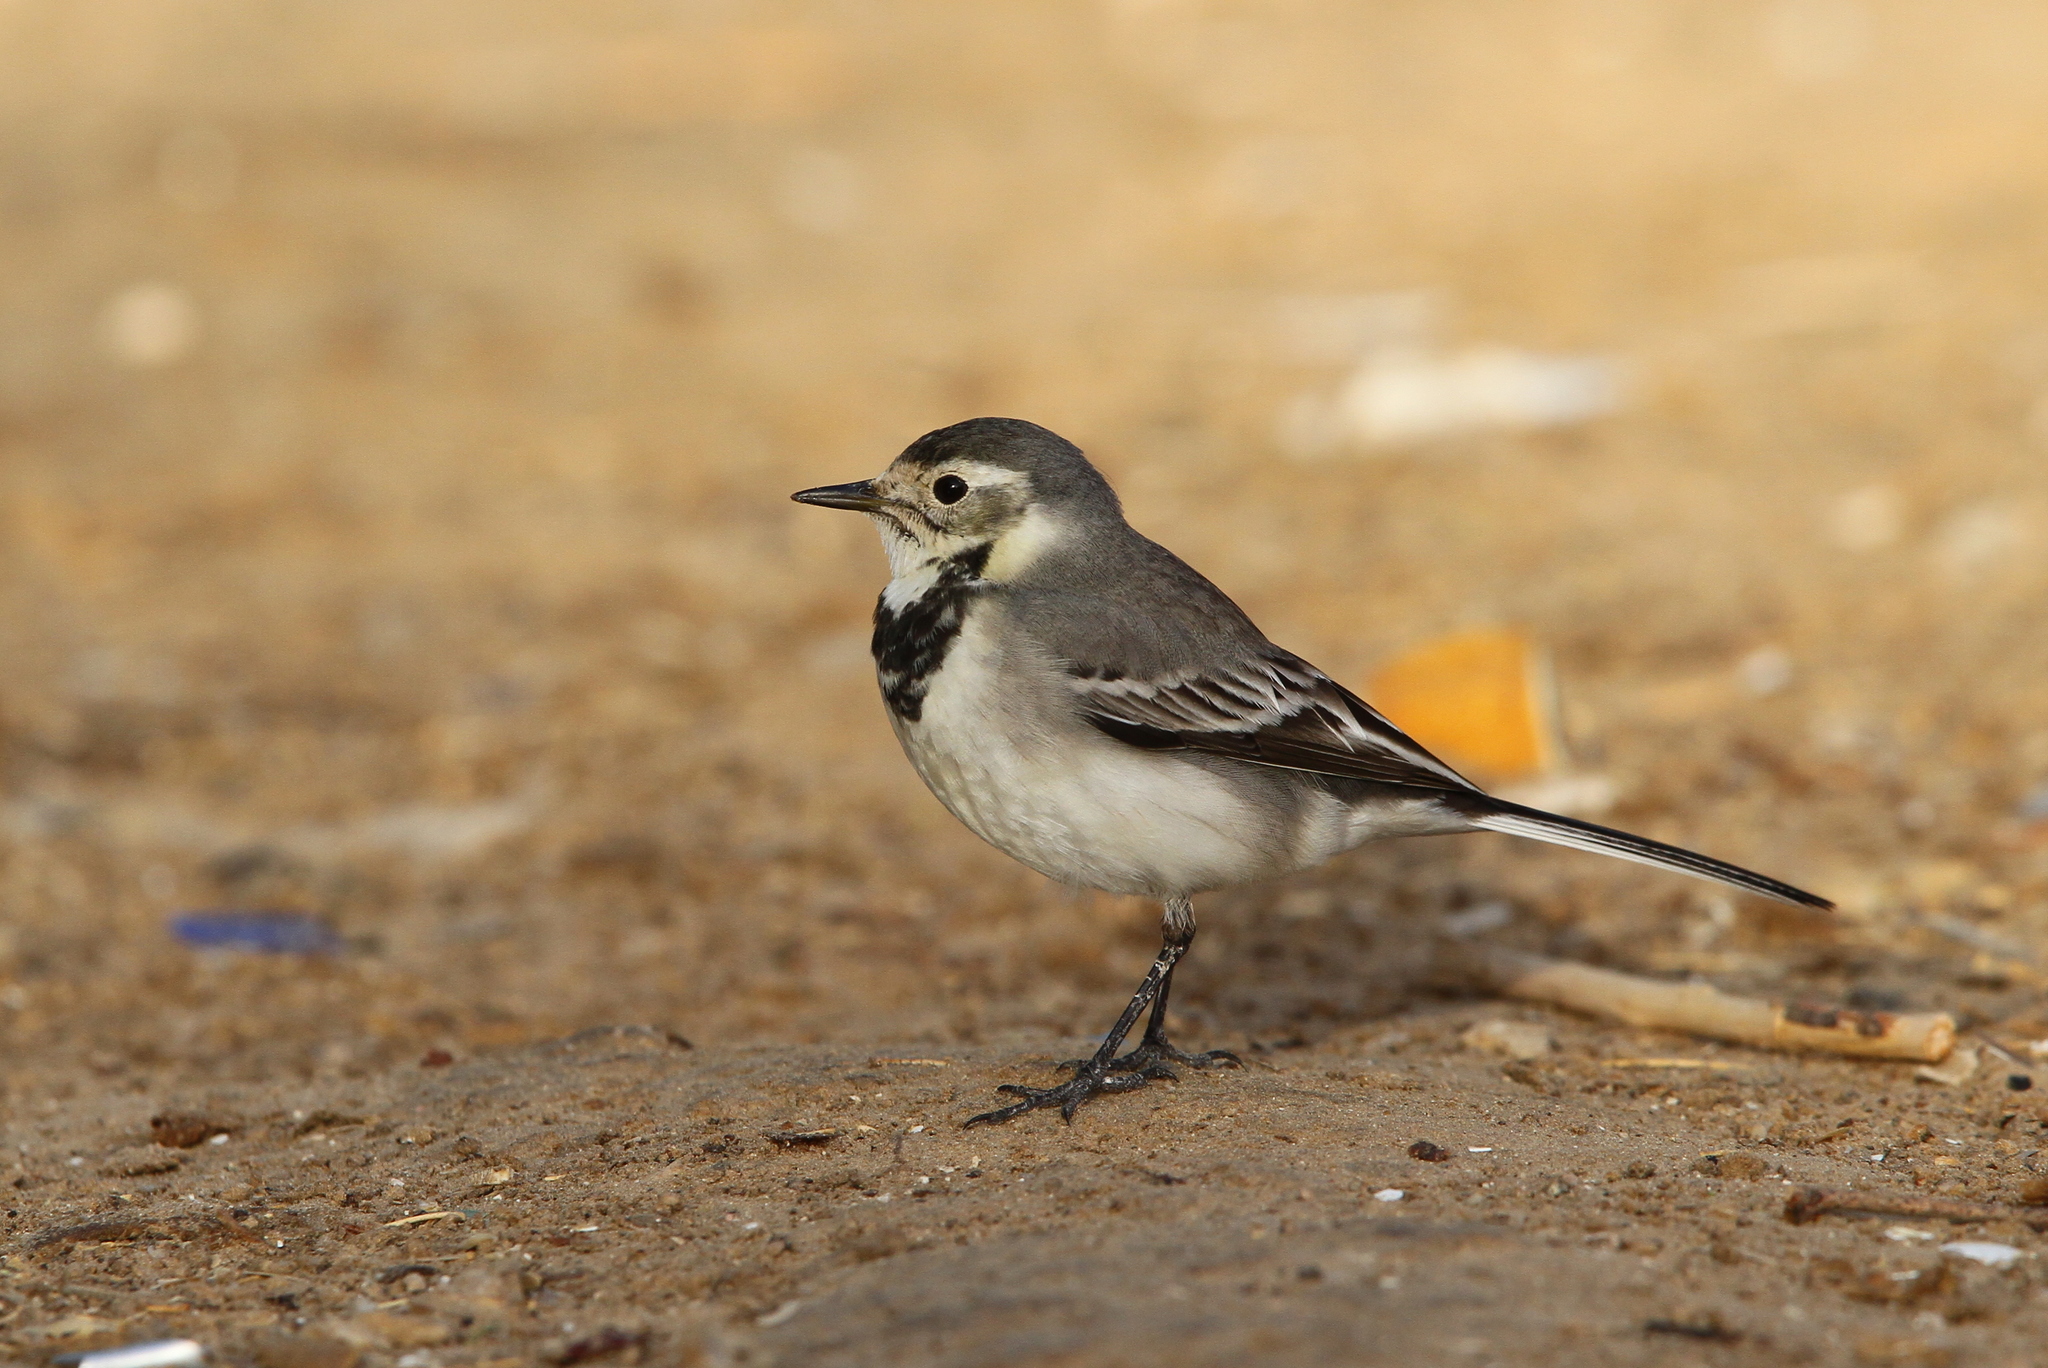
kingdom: Animalia
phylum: Chordata
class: Aves
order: Passeriformes
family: Motacillidae
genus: Motacilla
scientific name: Motacilla alba
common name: White wagtail
